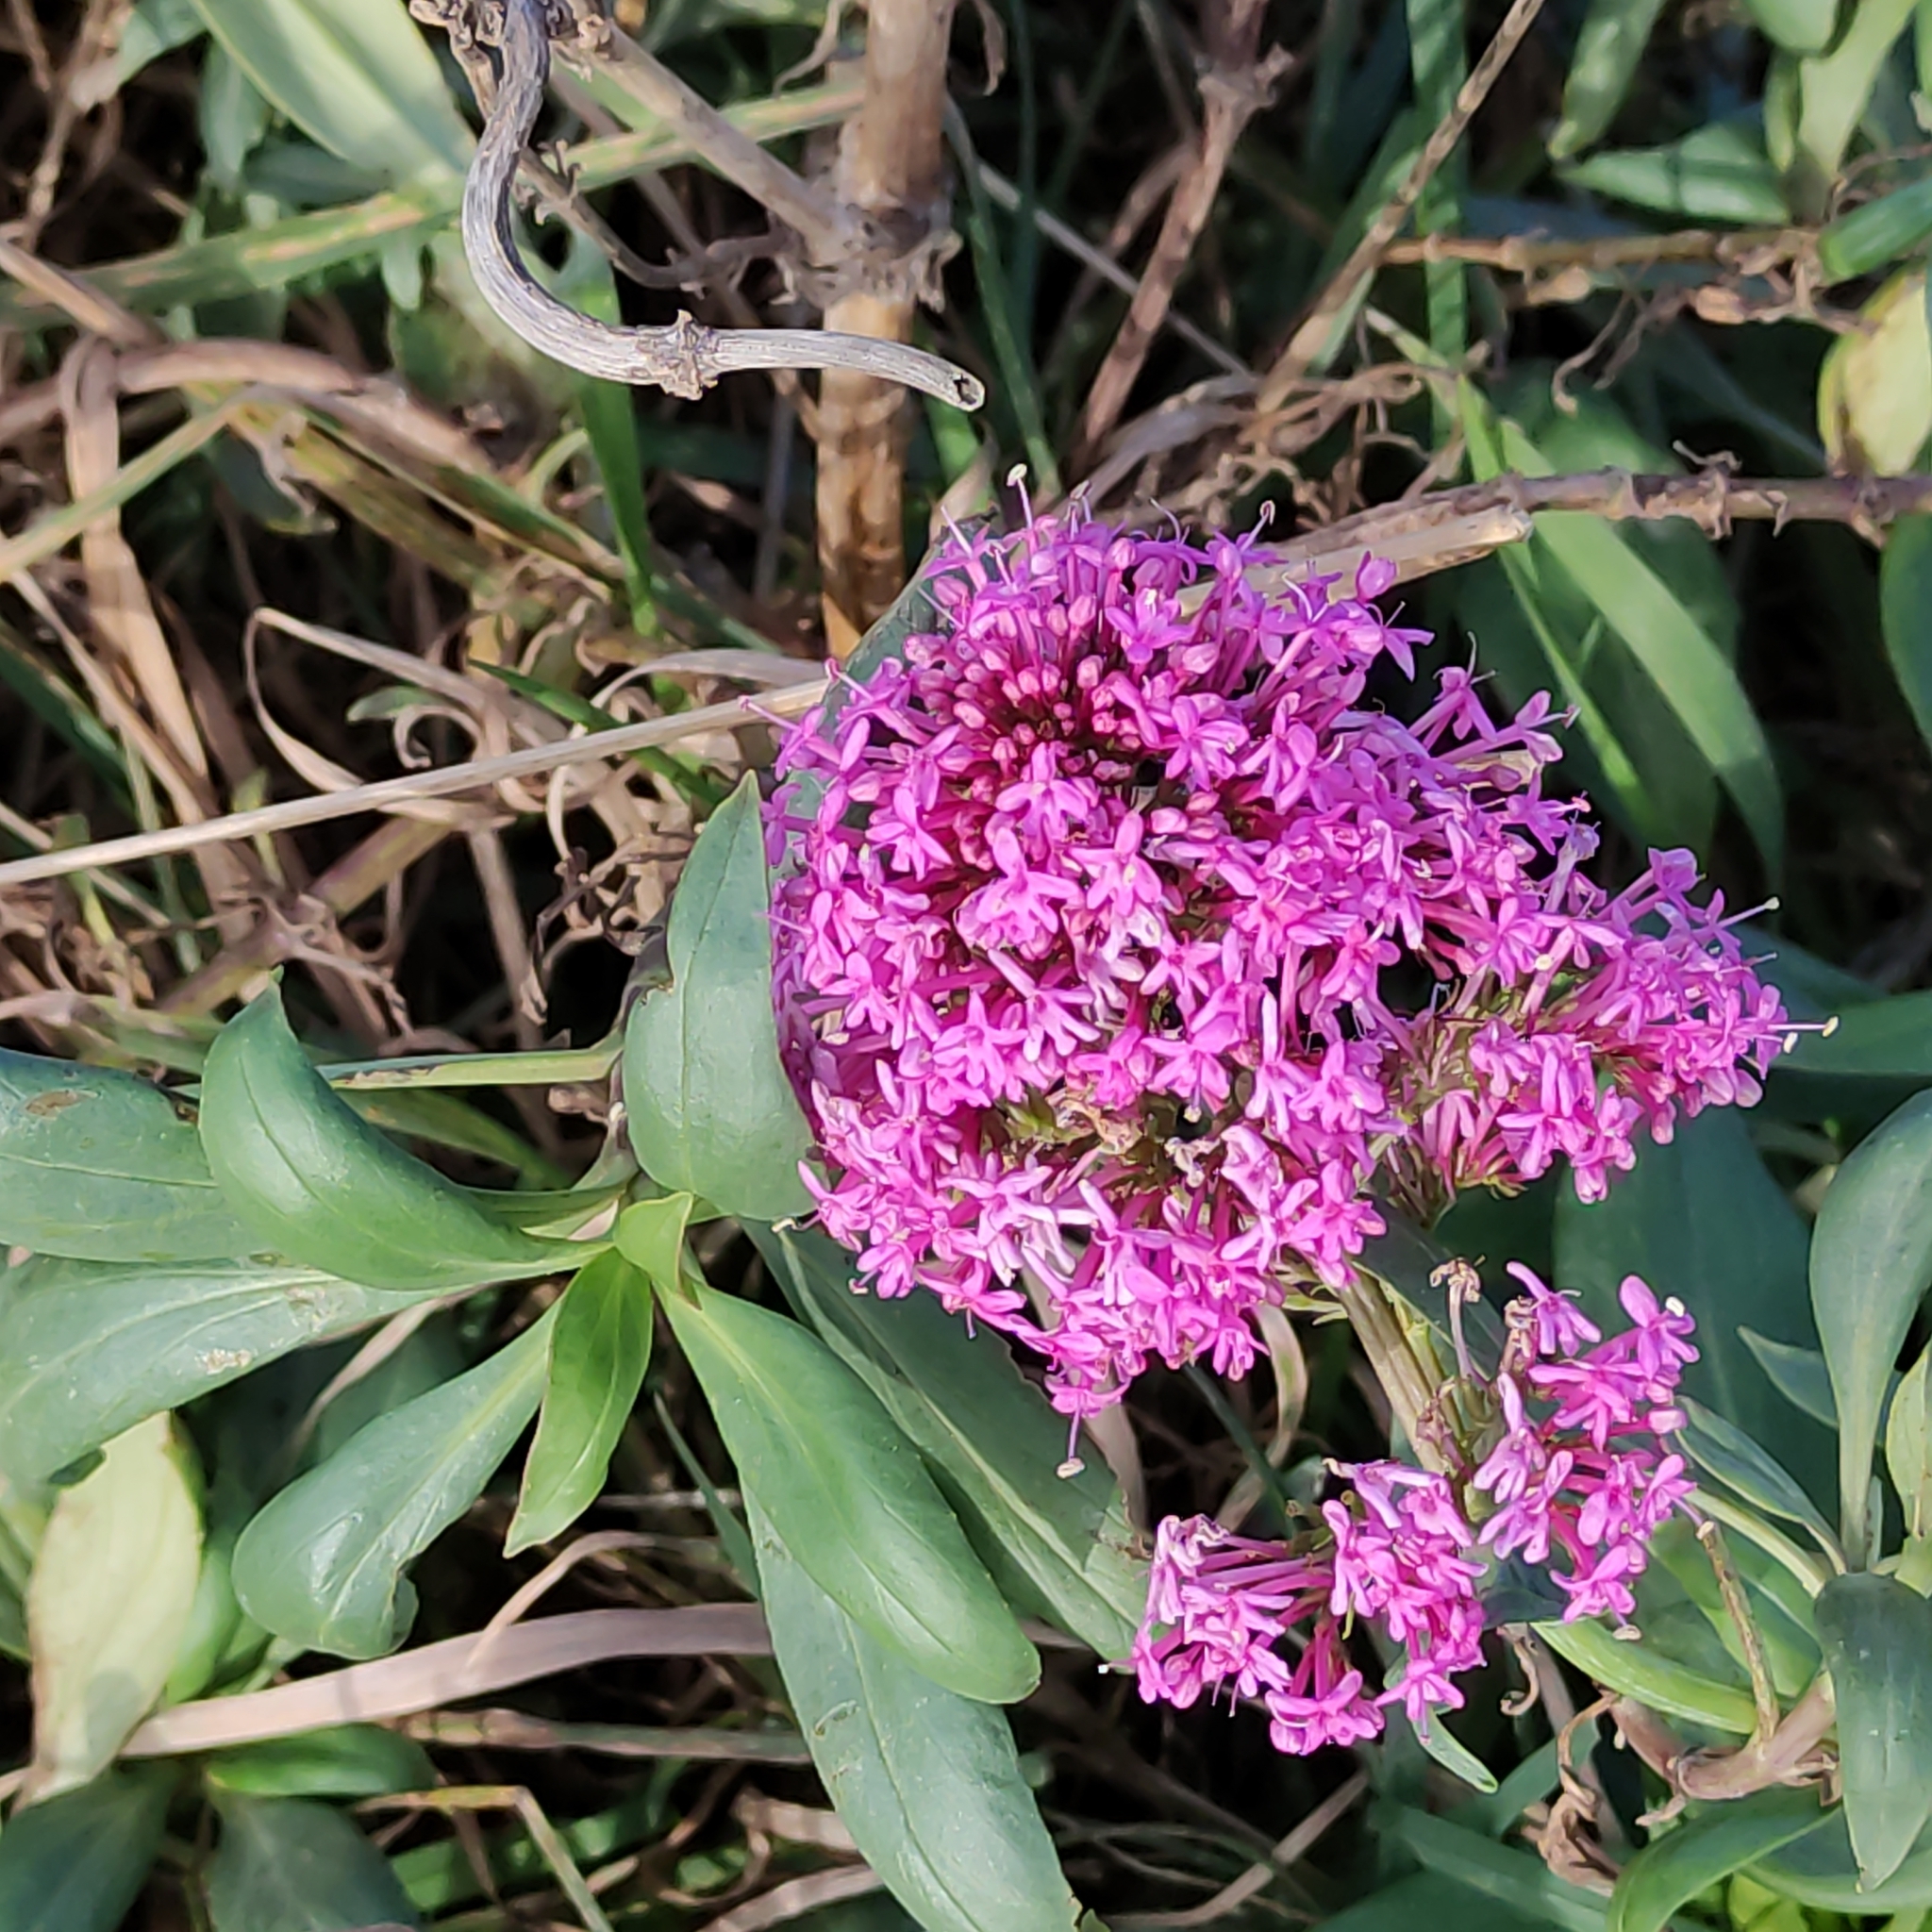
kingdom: Plantae
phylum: Tracheophyta
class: Magnoliopsida
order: Dipsacales
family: Caprifoliaceae
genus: Centranthus
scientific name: Centranthus ruber
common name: Red valerian
